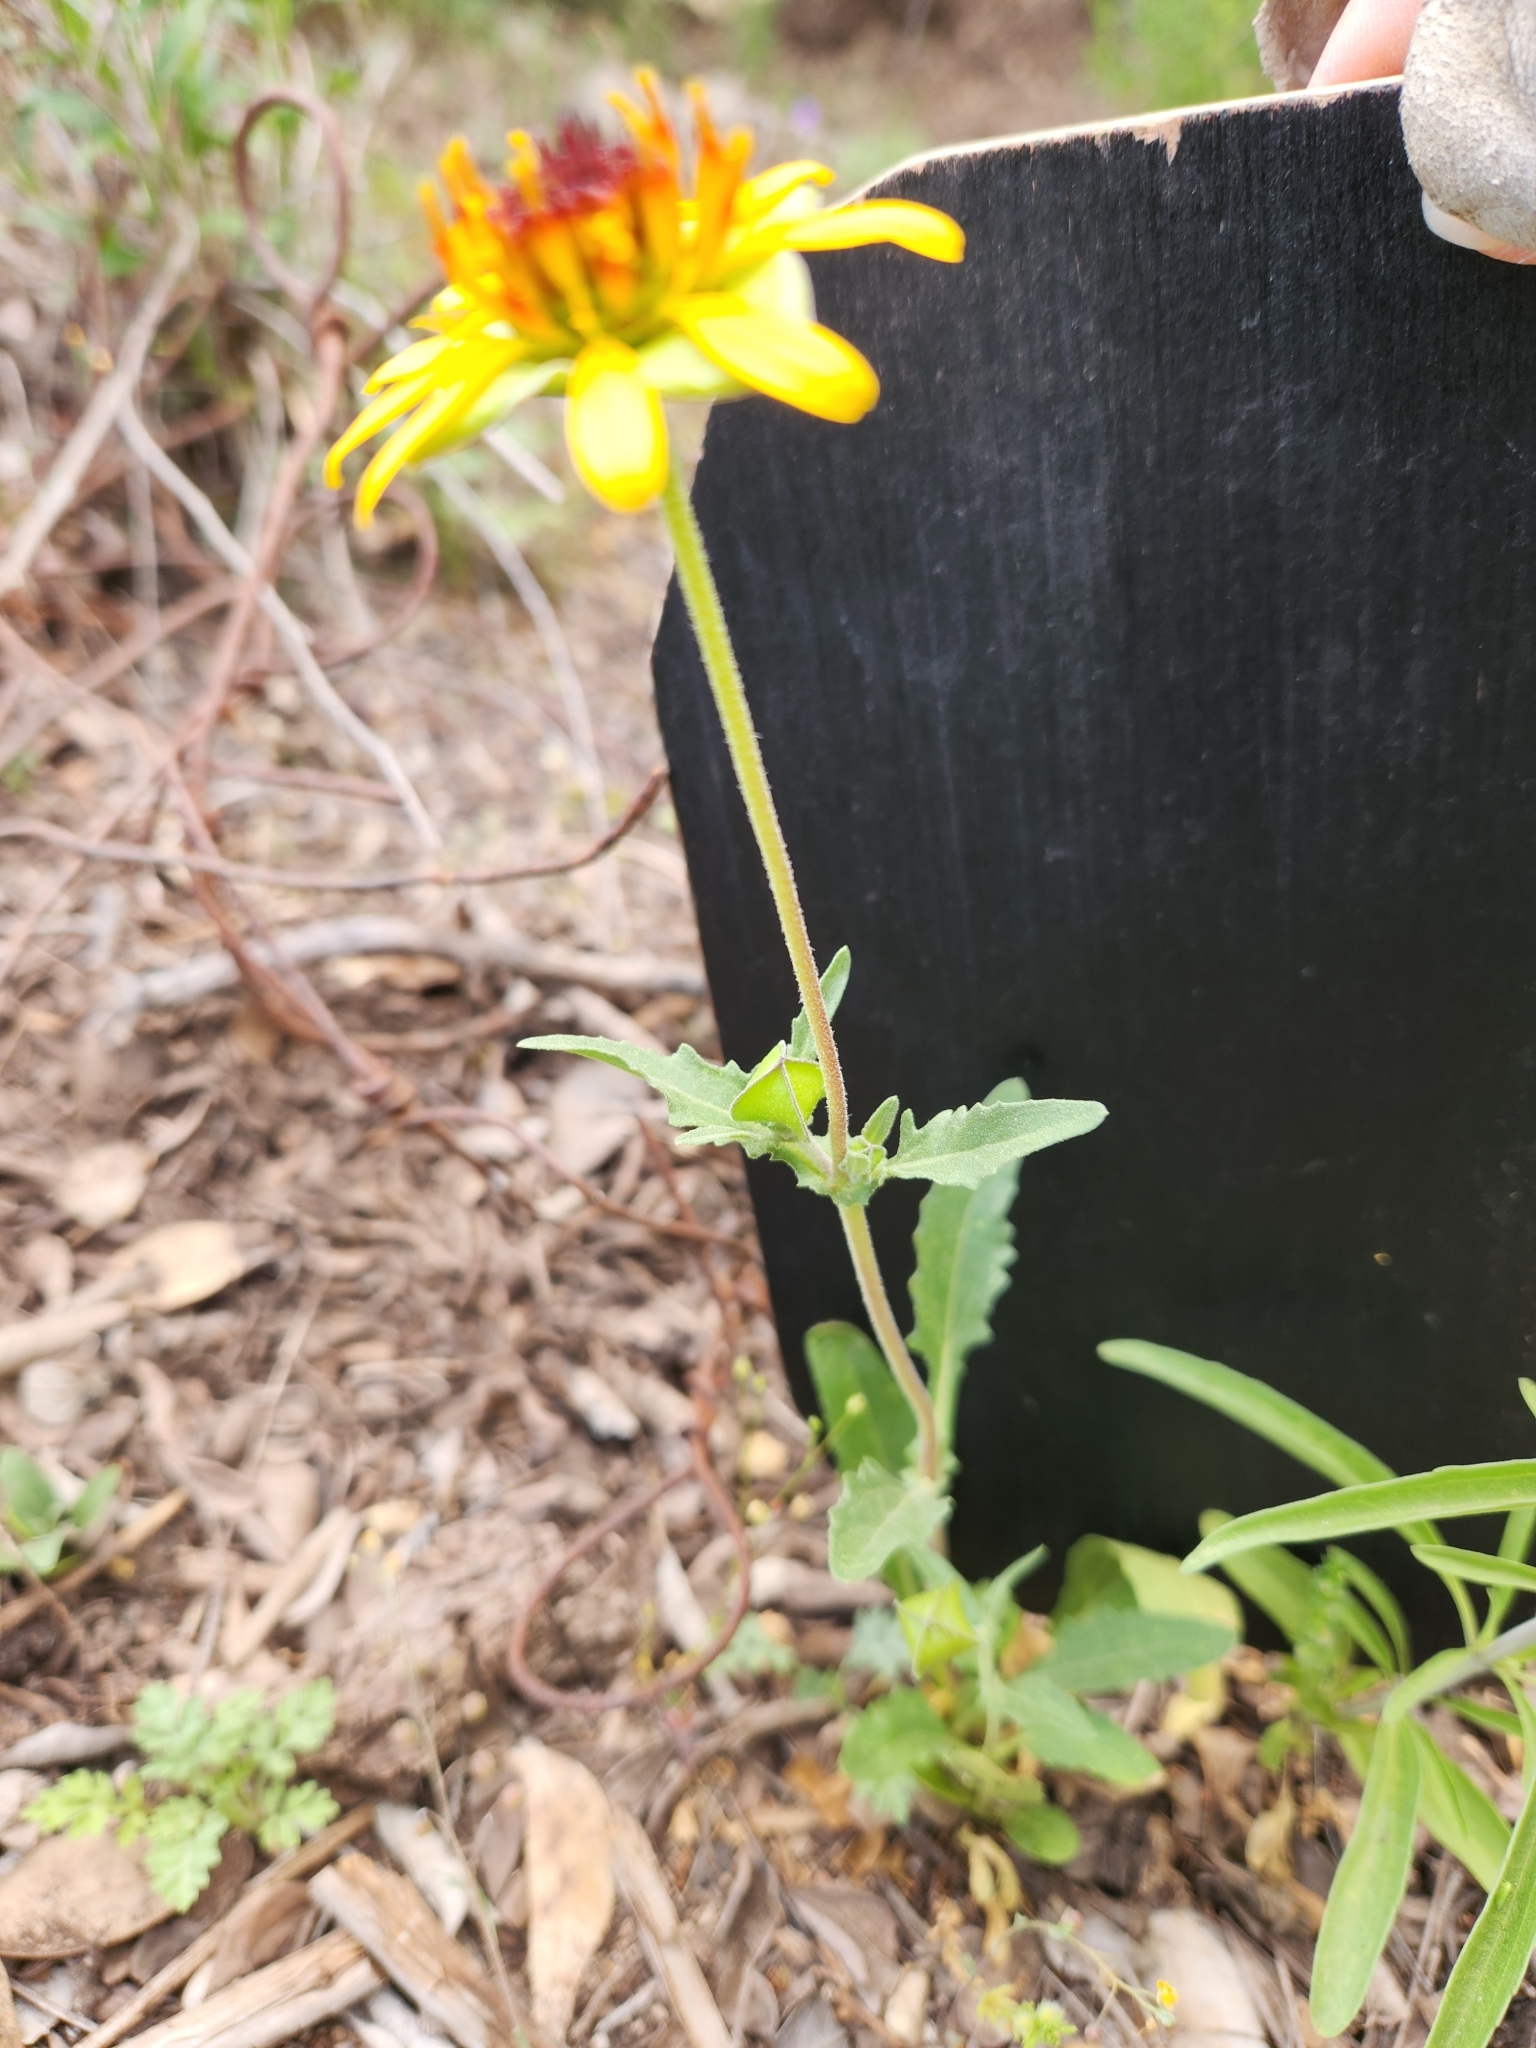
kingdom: Plantae
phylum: Tracheophyta
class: Magnoliopsida
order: Asterales
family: Asteraceae
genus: Tetragonotheca
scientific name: Tetragonotheca texana
